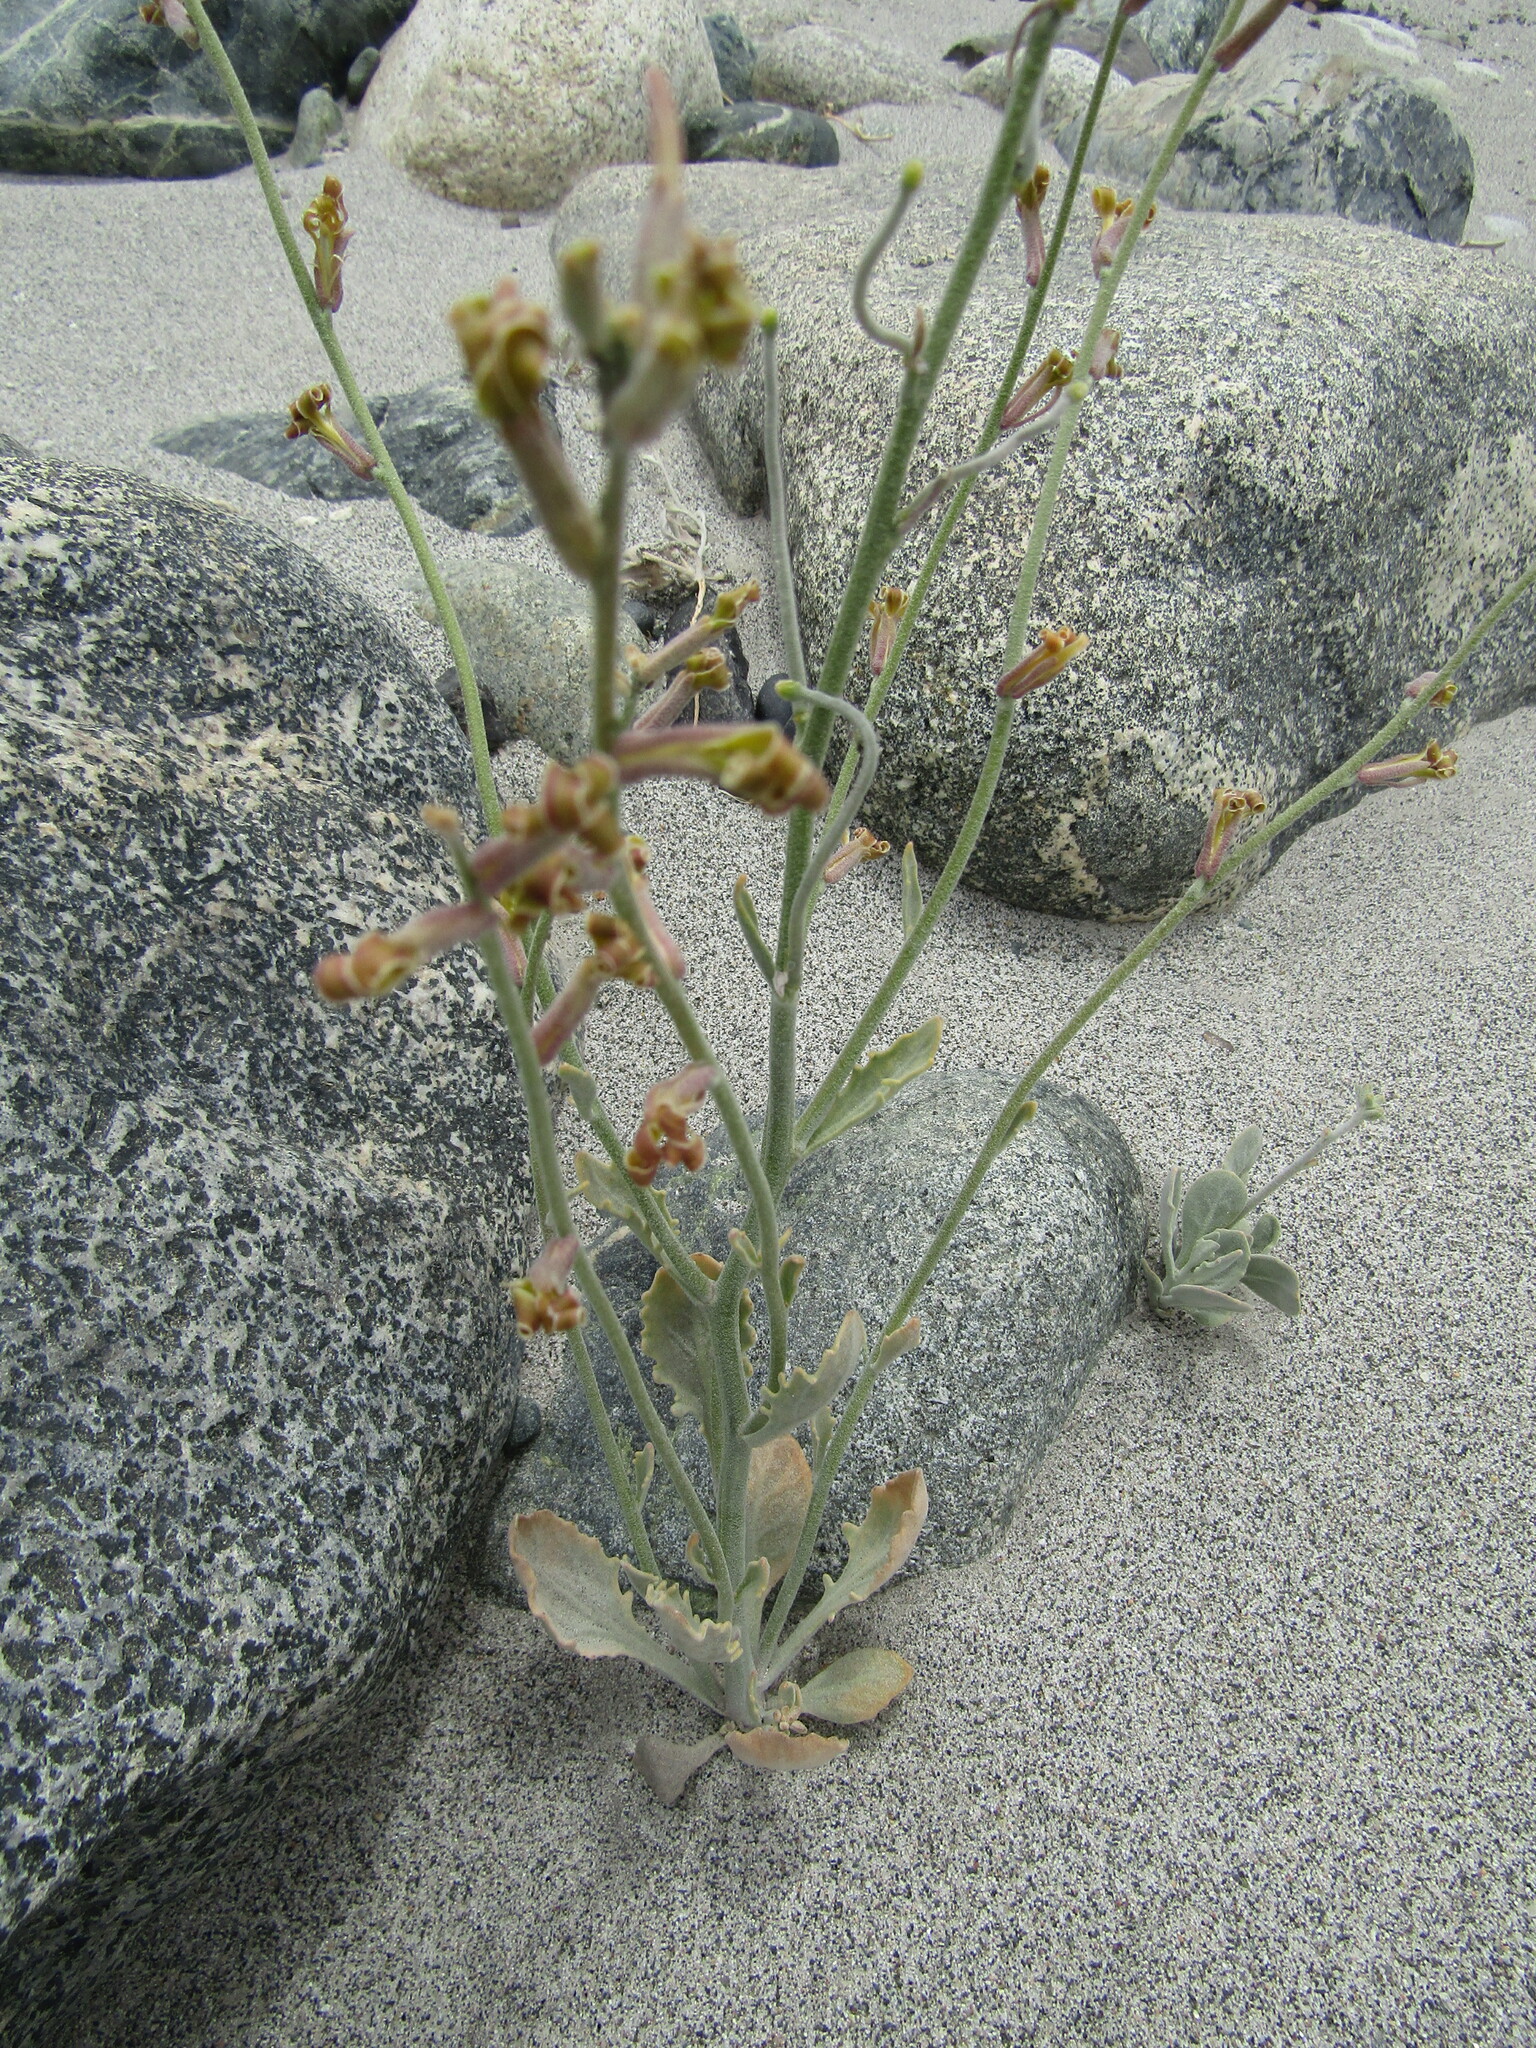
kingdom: Plantae
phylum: Tracheophyta
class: Magnoliopsida
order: Brassicales
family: Brassicaceae
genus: Matthiola
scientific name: Matthiola chorassanica
